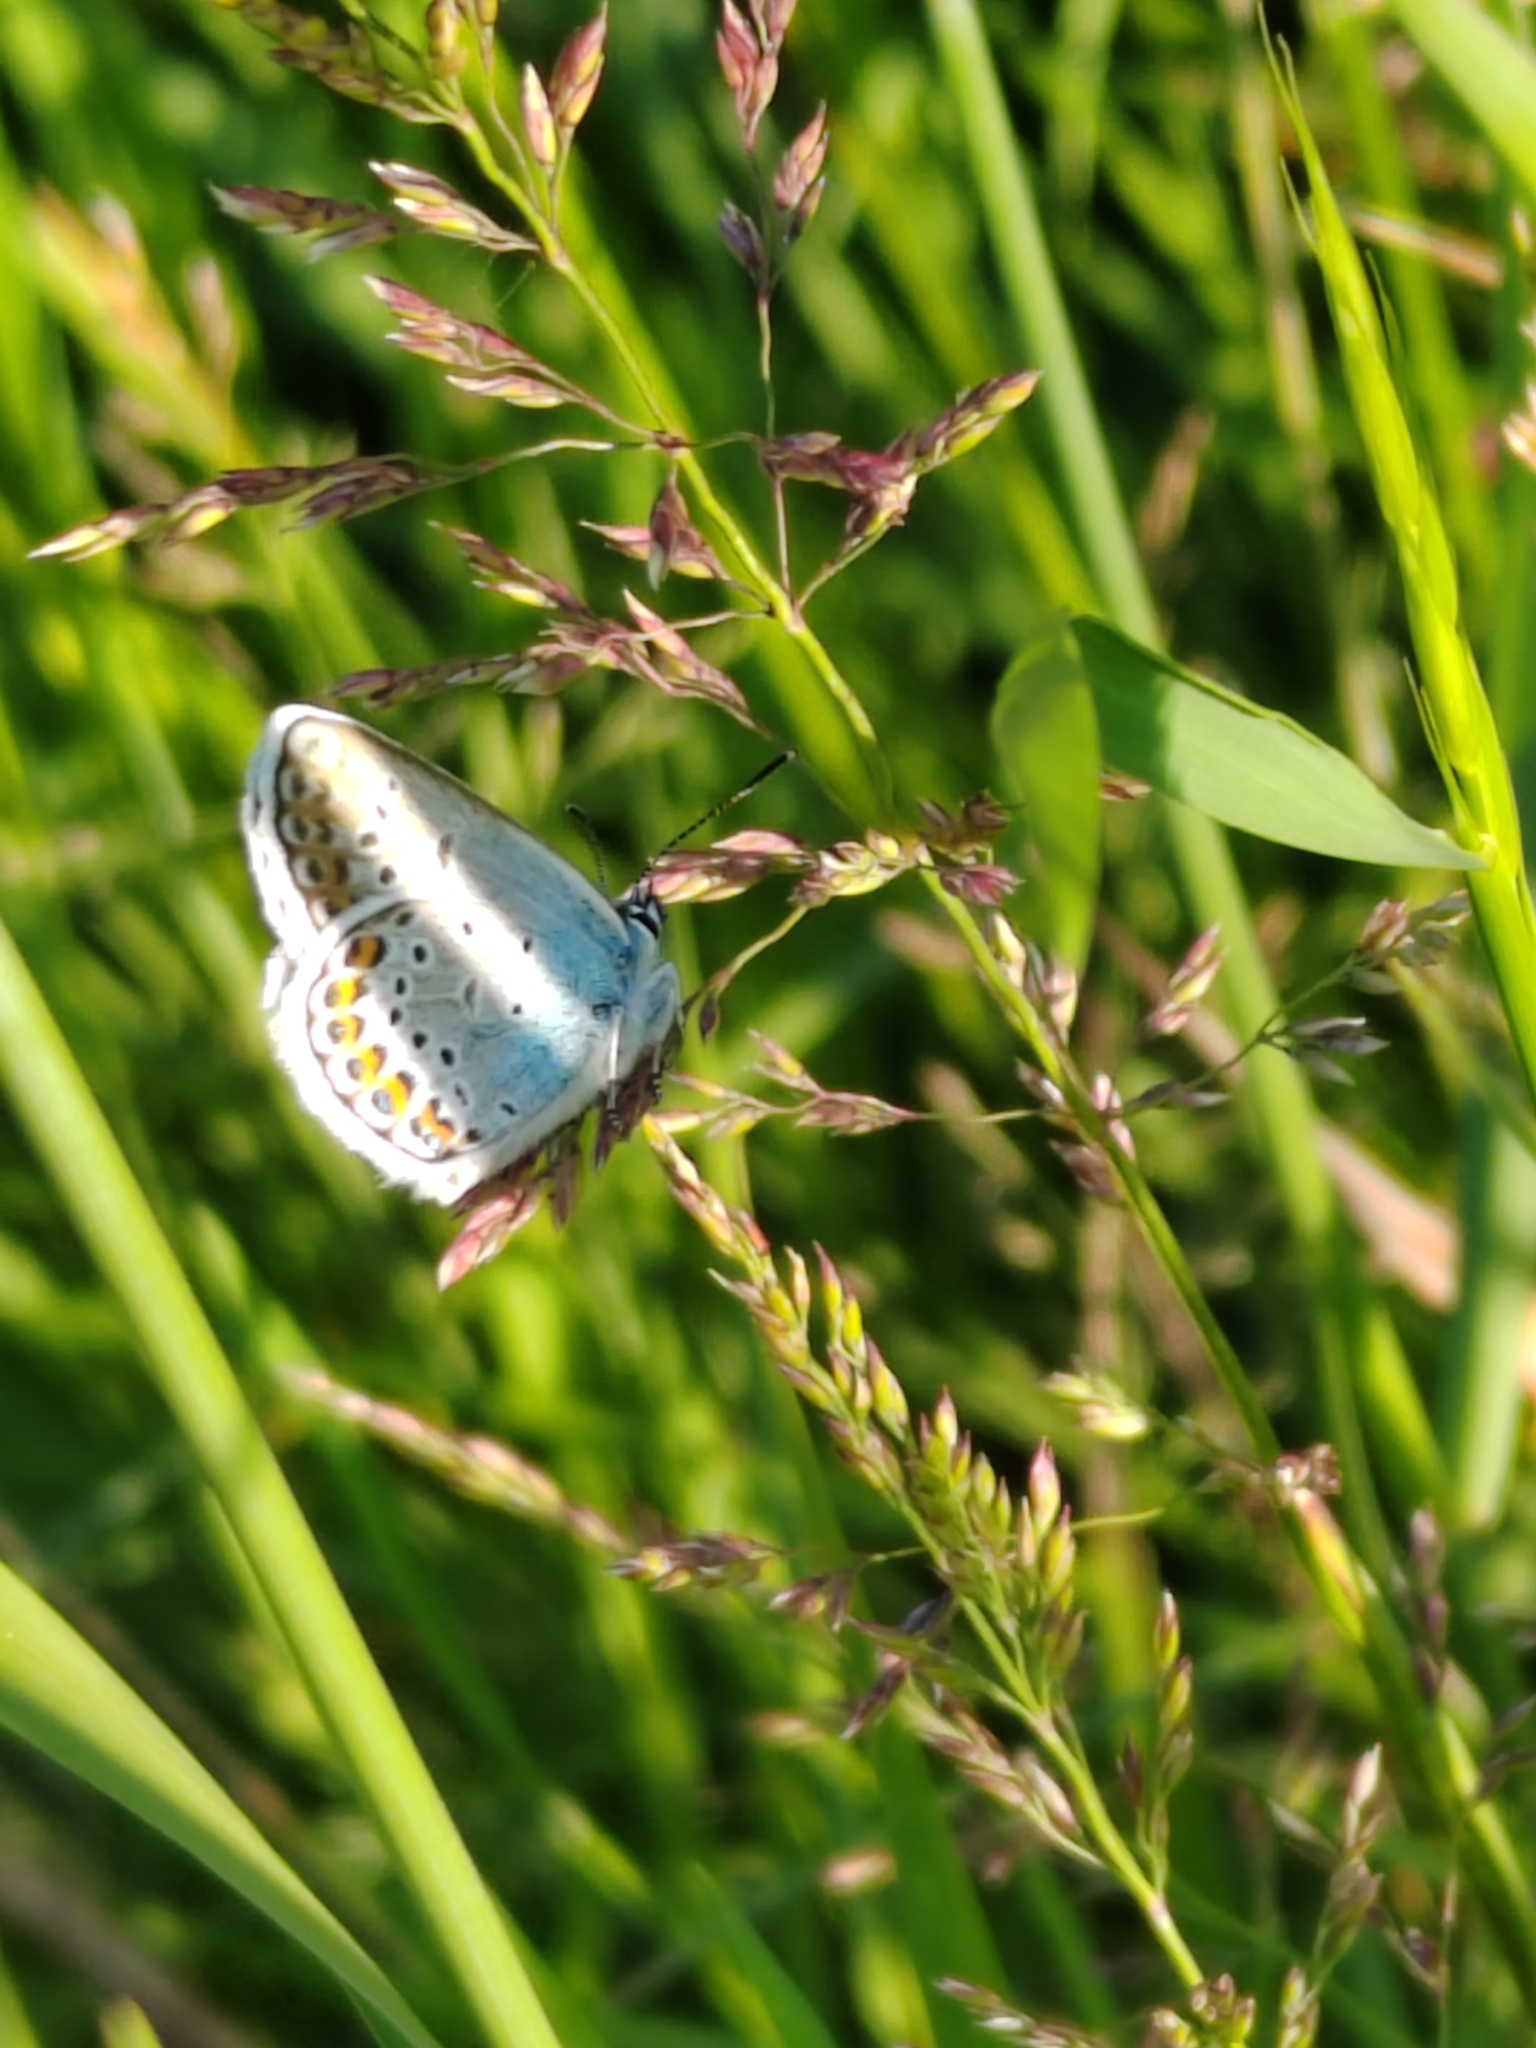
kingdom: Animalia
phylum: Arthropoda
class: Insecta
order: Lepidoptera
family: Lycaenidae
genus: Plebejus
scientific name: Plebejus argus
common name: Silver-studded blue
